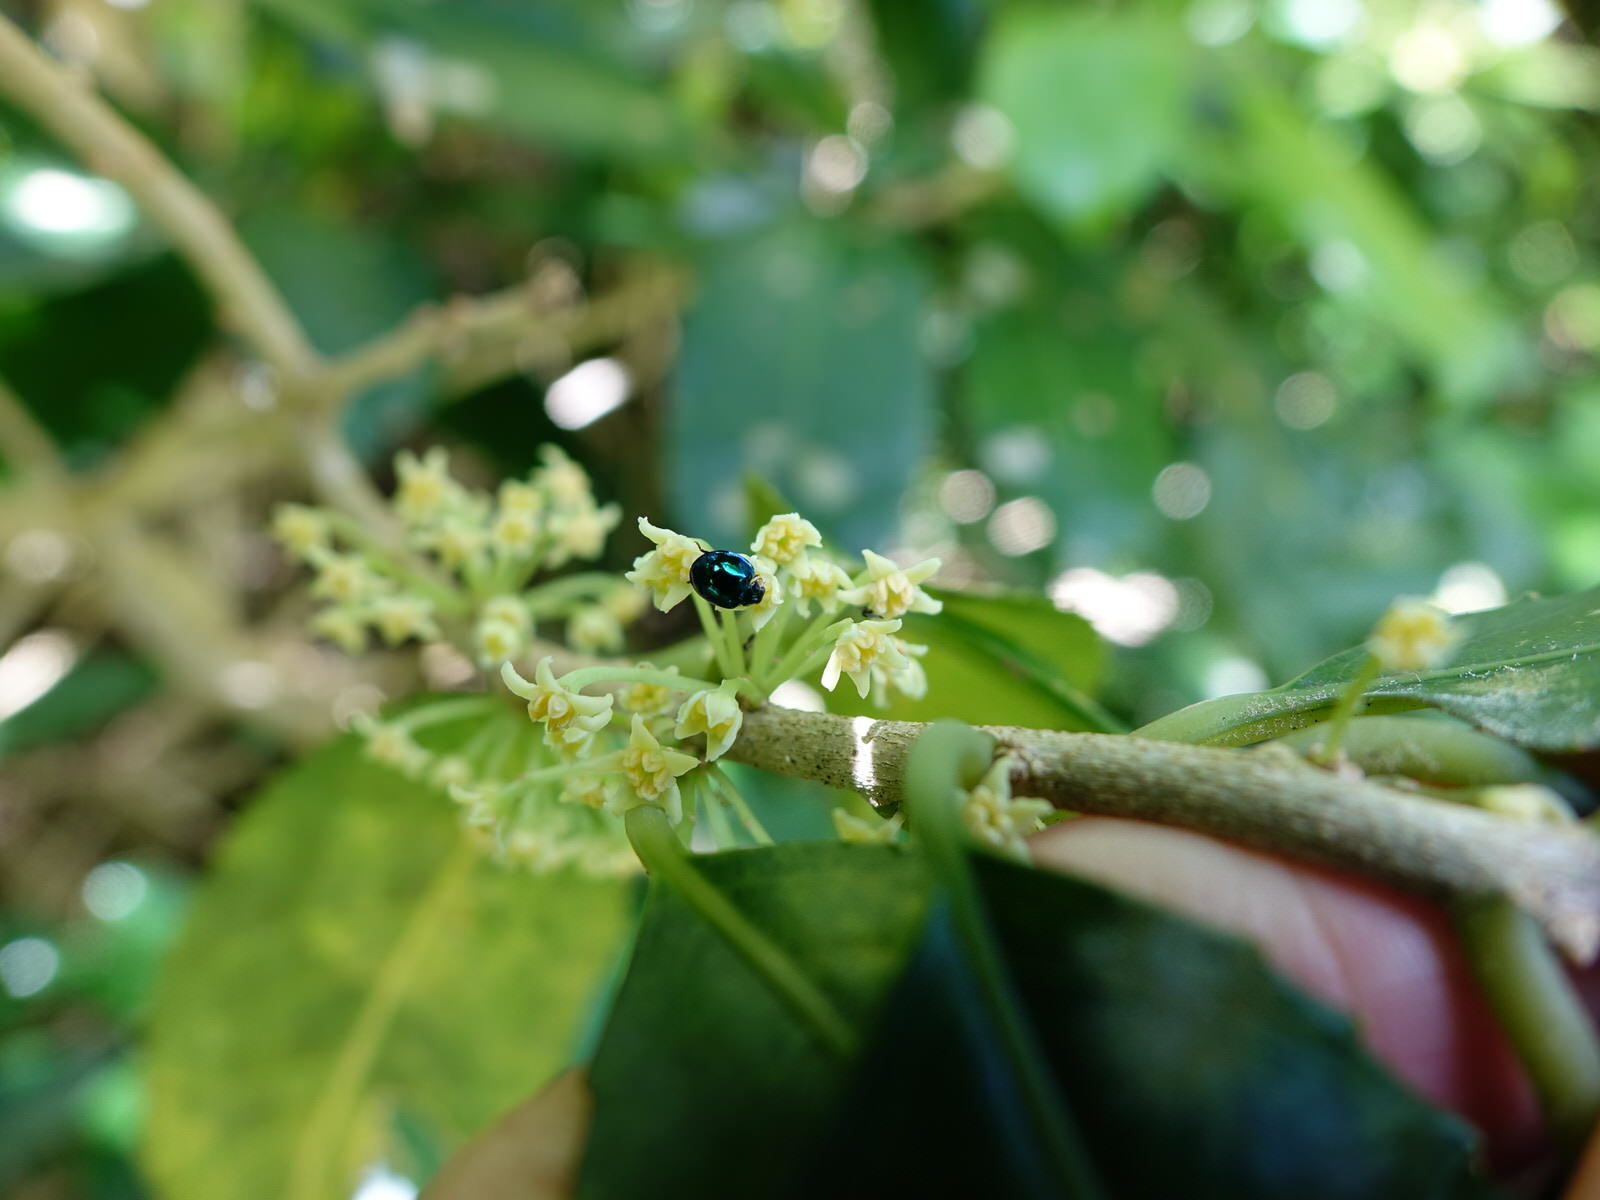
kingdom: Animalia
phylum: Arthropoda
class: Insecta
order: Coleoptera
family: Coccinellidae
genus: Halmus
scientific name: Halmus chalybeus
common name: Steel blue ladybird beetle
